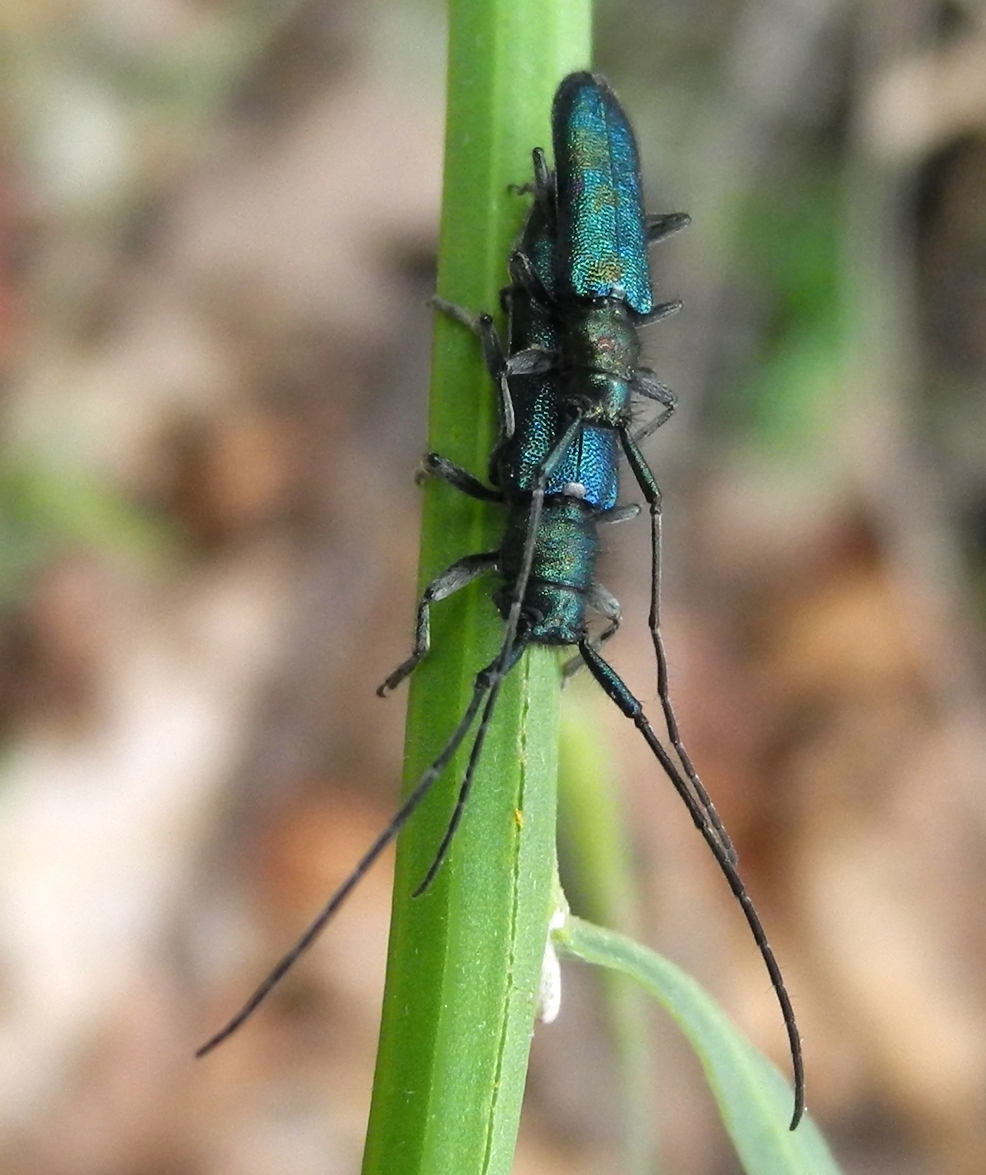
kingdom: Animalia
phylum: Arthropoda
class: Insecta
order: Coleoptera
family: Cerambycidae
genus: Agapanthia
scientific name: Agapanthia violacea
